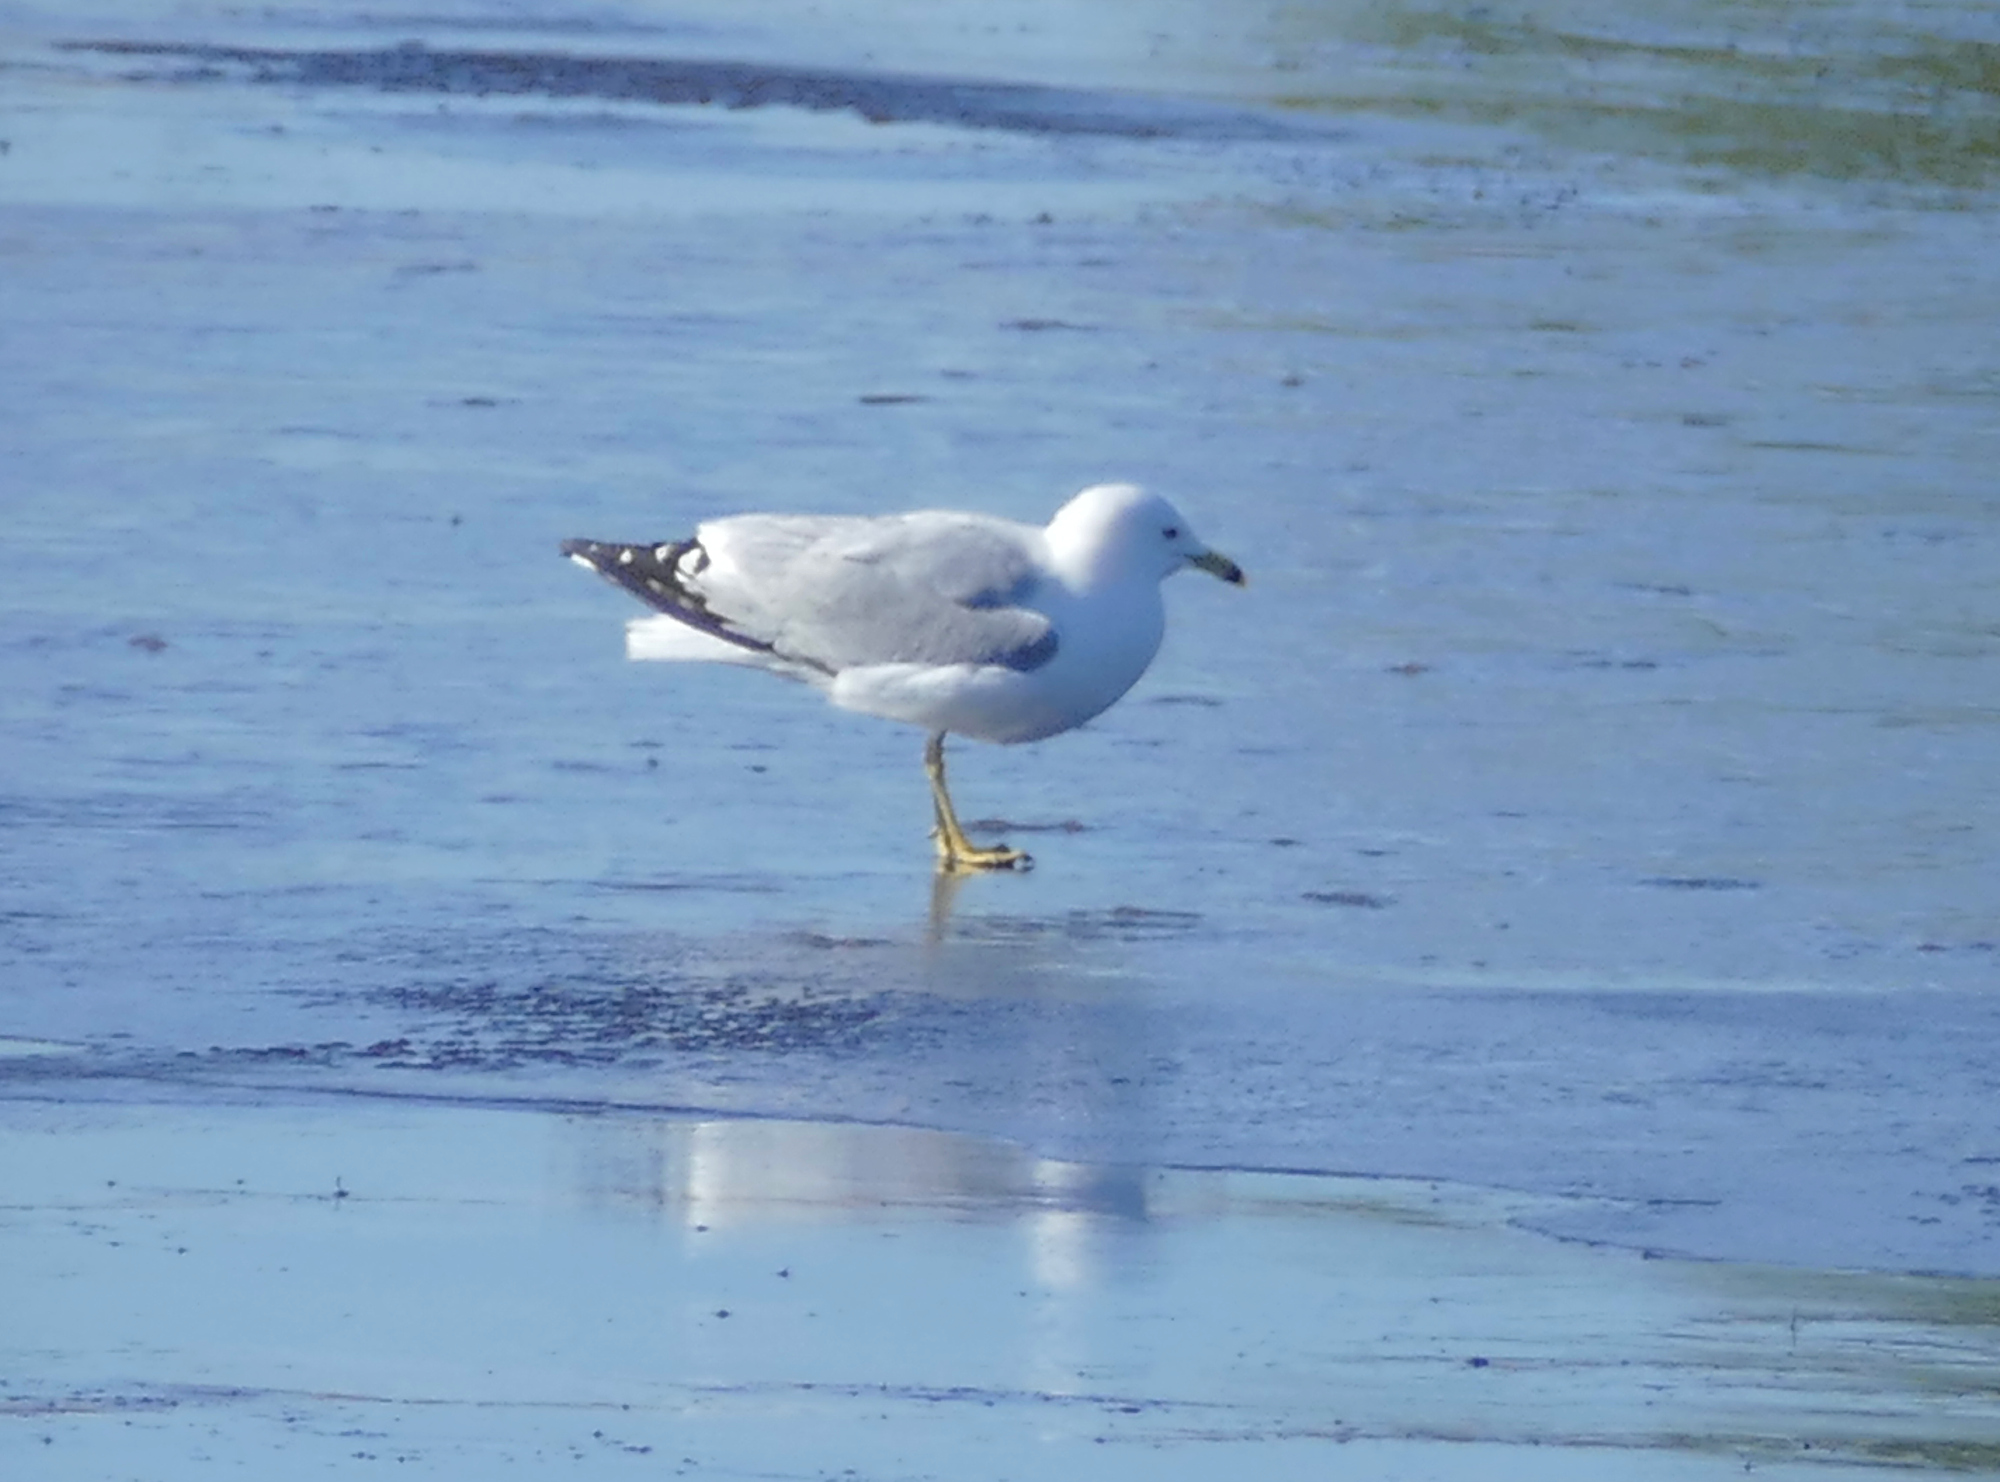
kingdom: Animalia
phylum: Chordata
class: Aves
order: Charadriiformes
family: Laridae
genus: Larus
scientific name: Larus delawarensis
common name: Ring-billed gull
